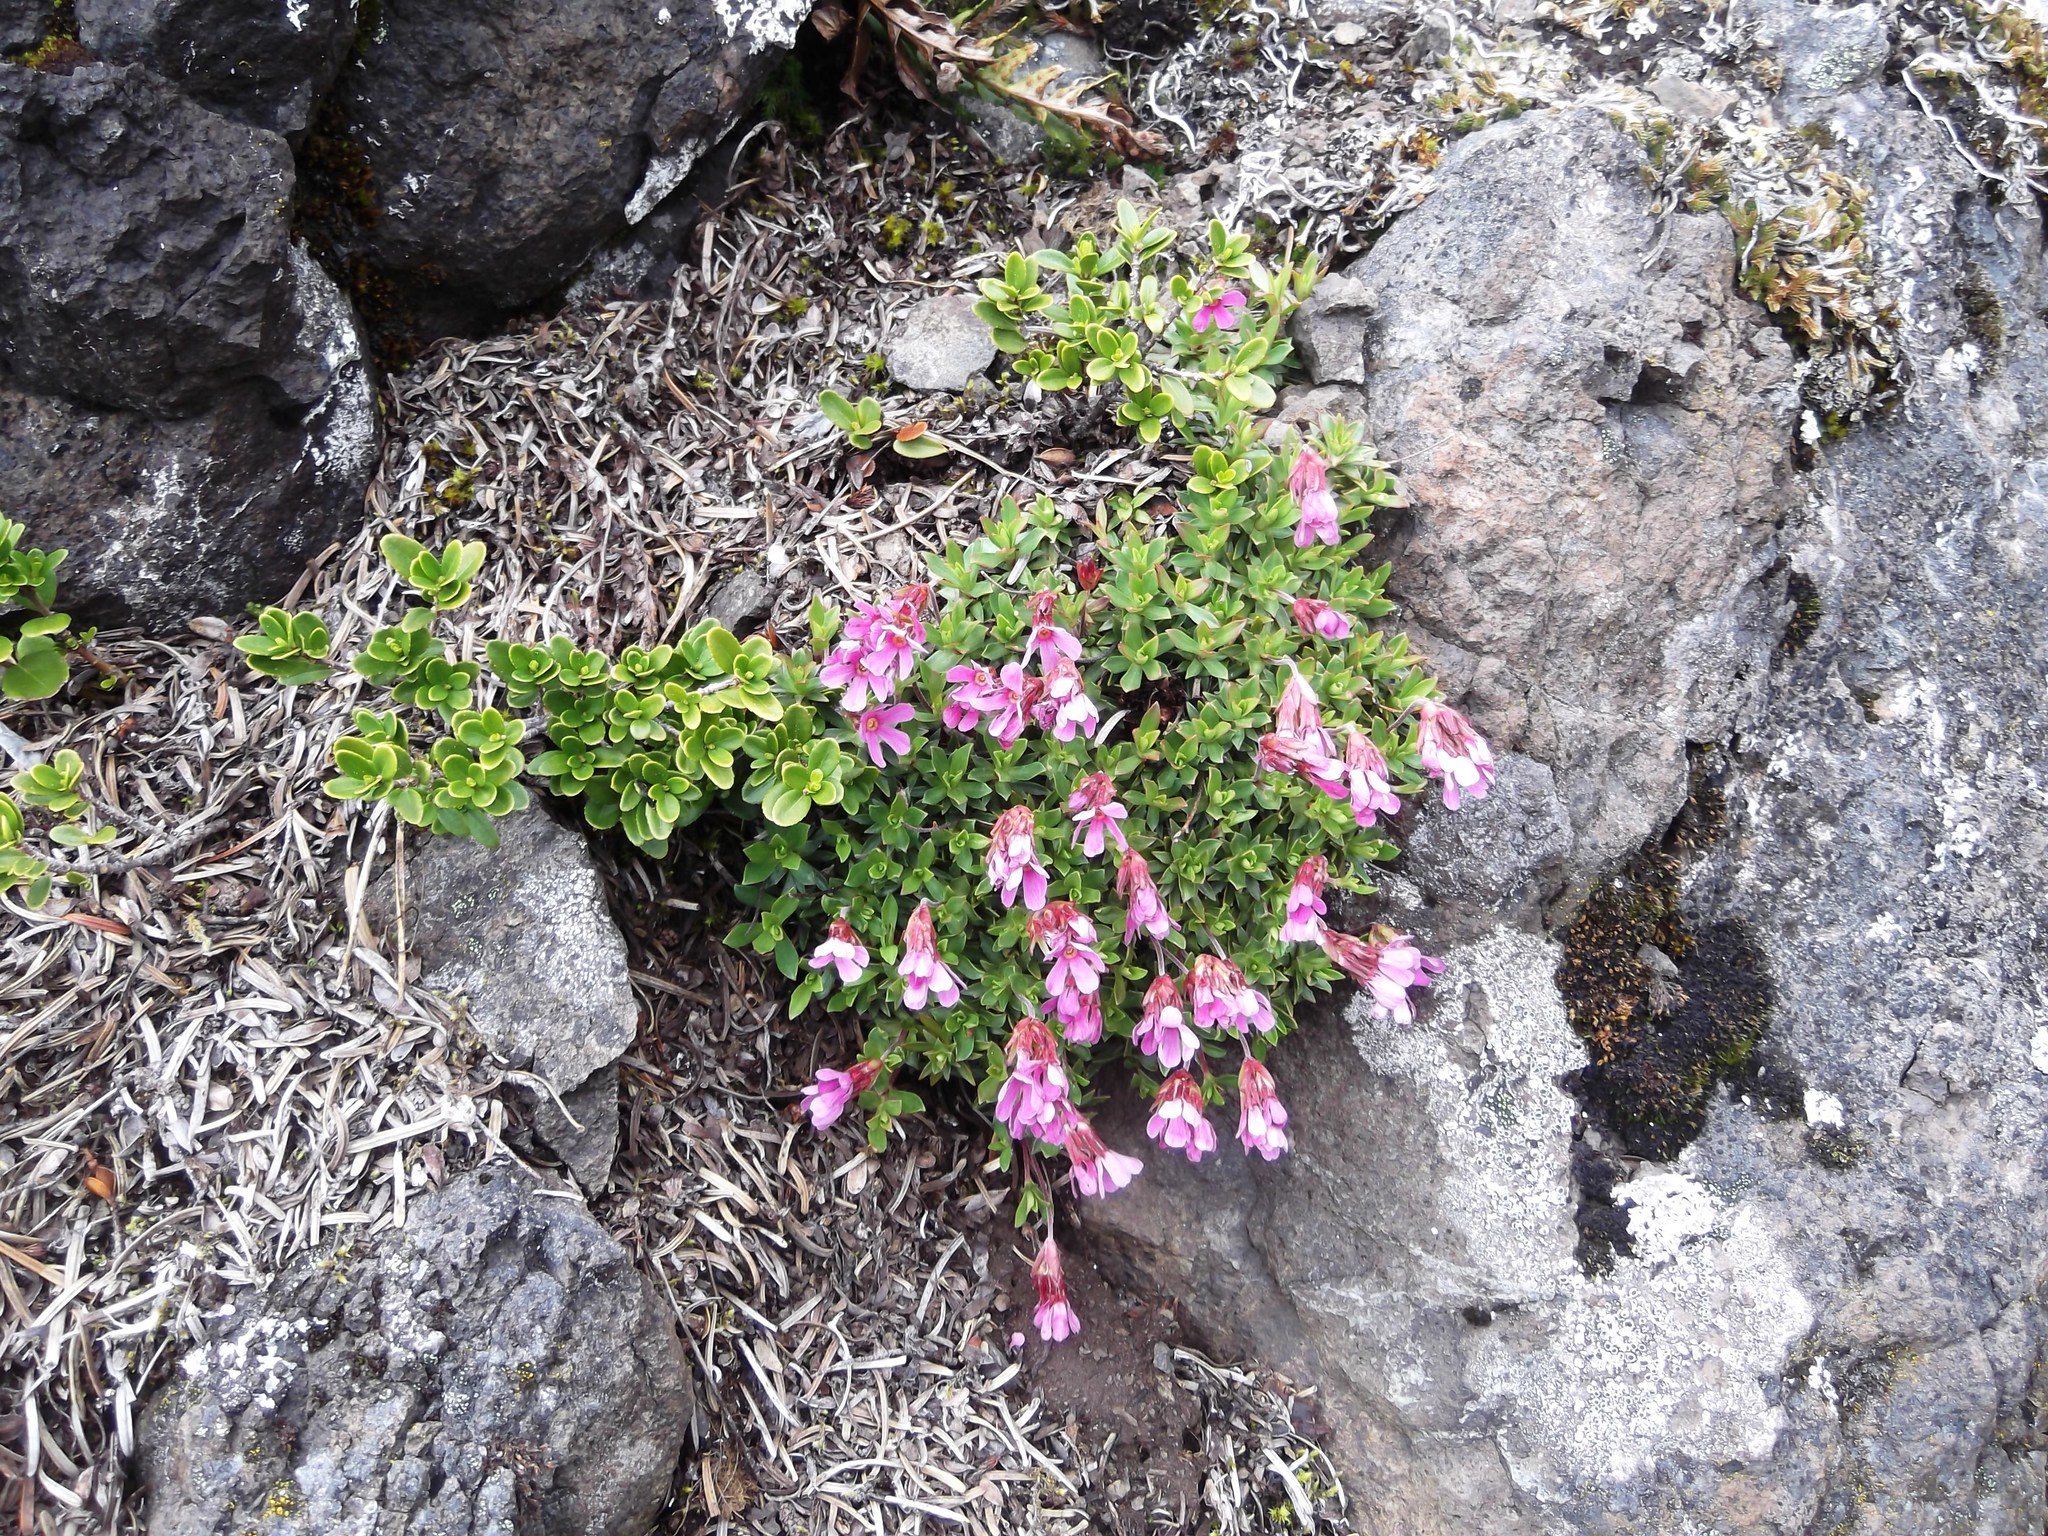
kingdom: Plantae
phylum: Tracheophyta
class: Magnoliopsida
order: Ericales
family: Primulaceae
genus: Androsace
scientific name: Androsace laevigata
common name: Cliff dwarf-primrose
